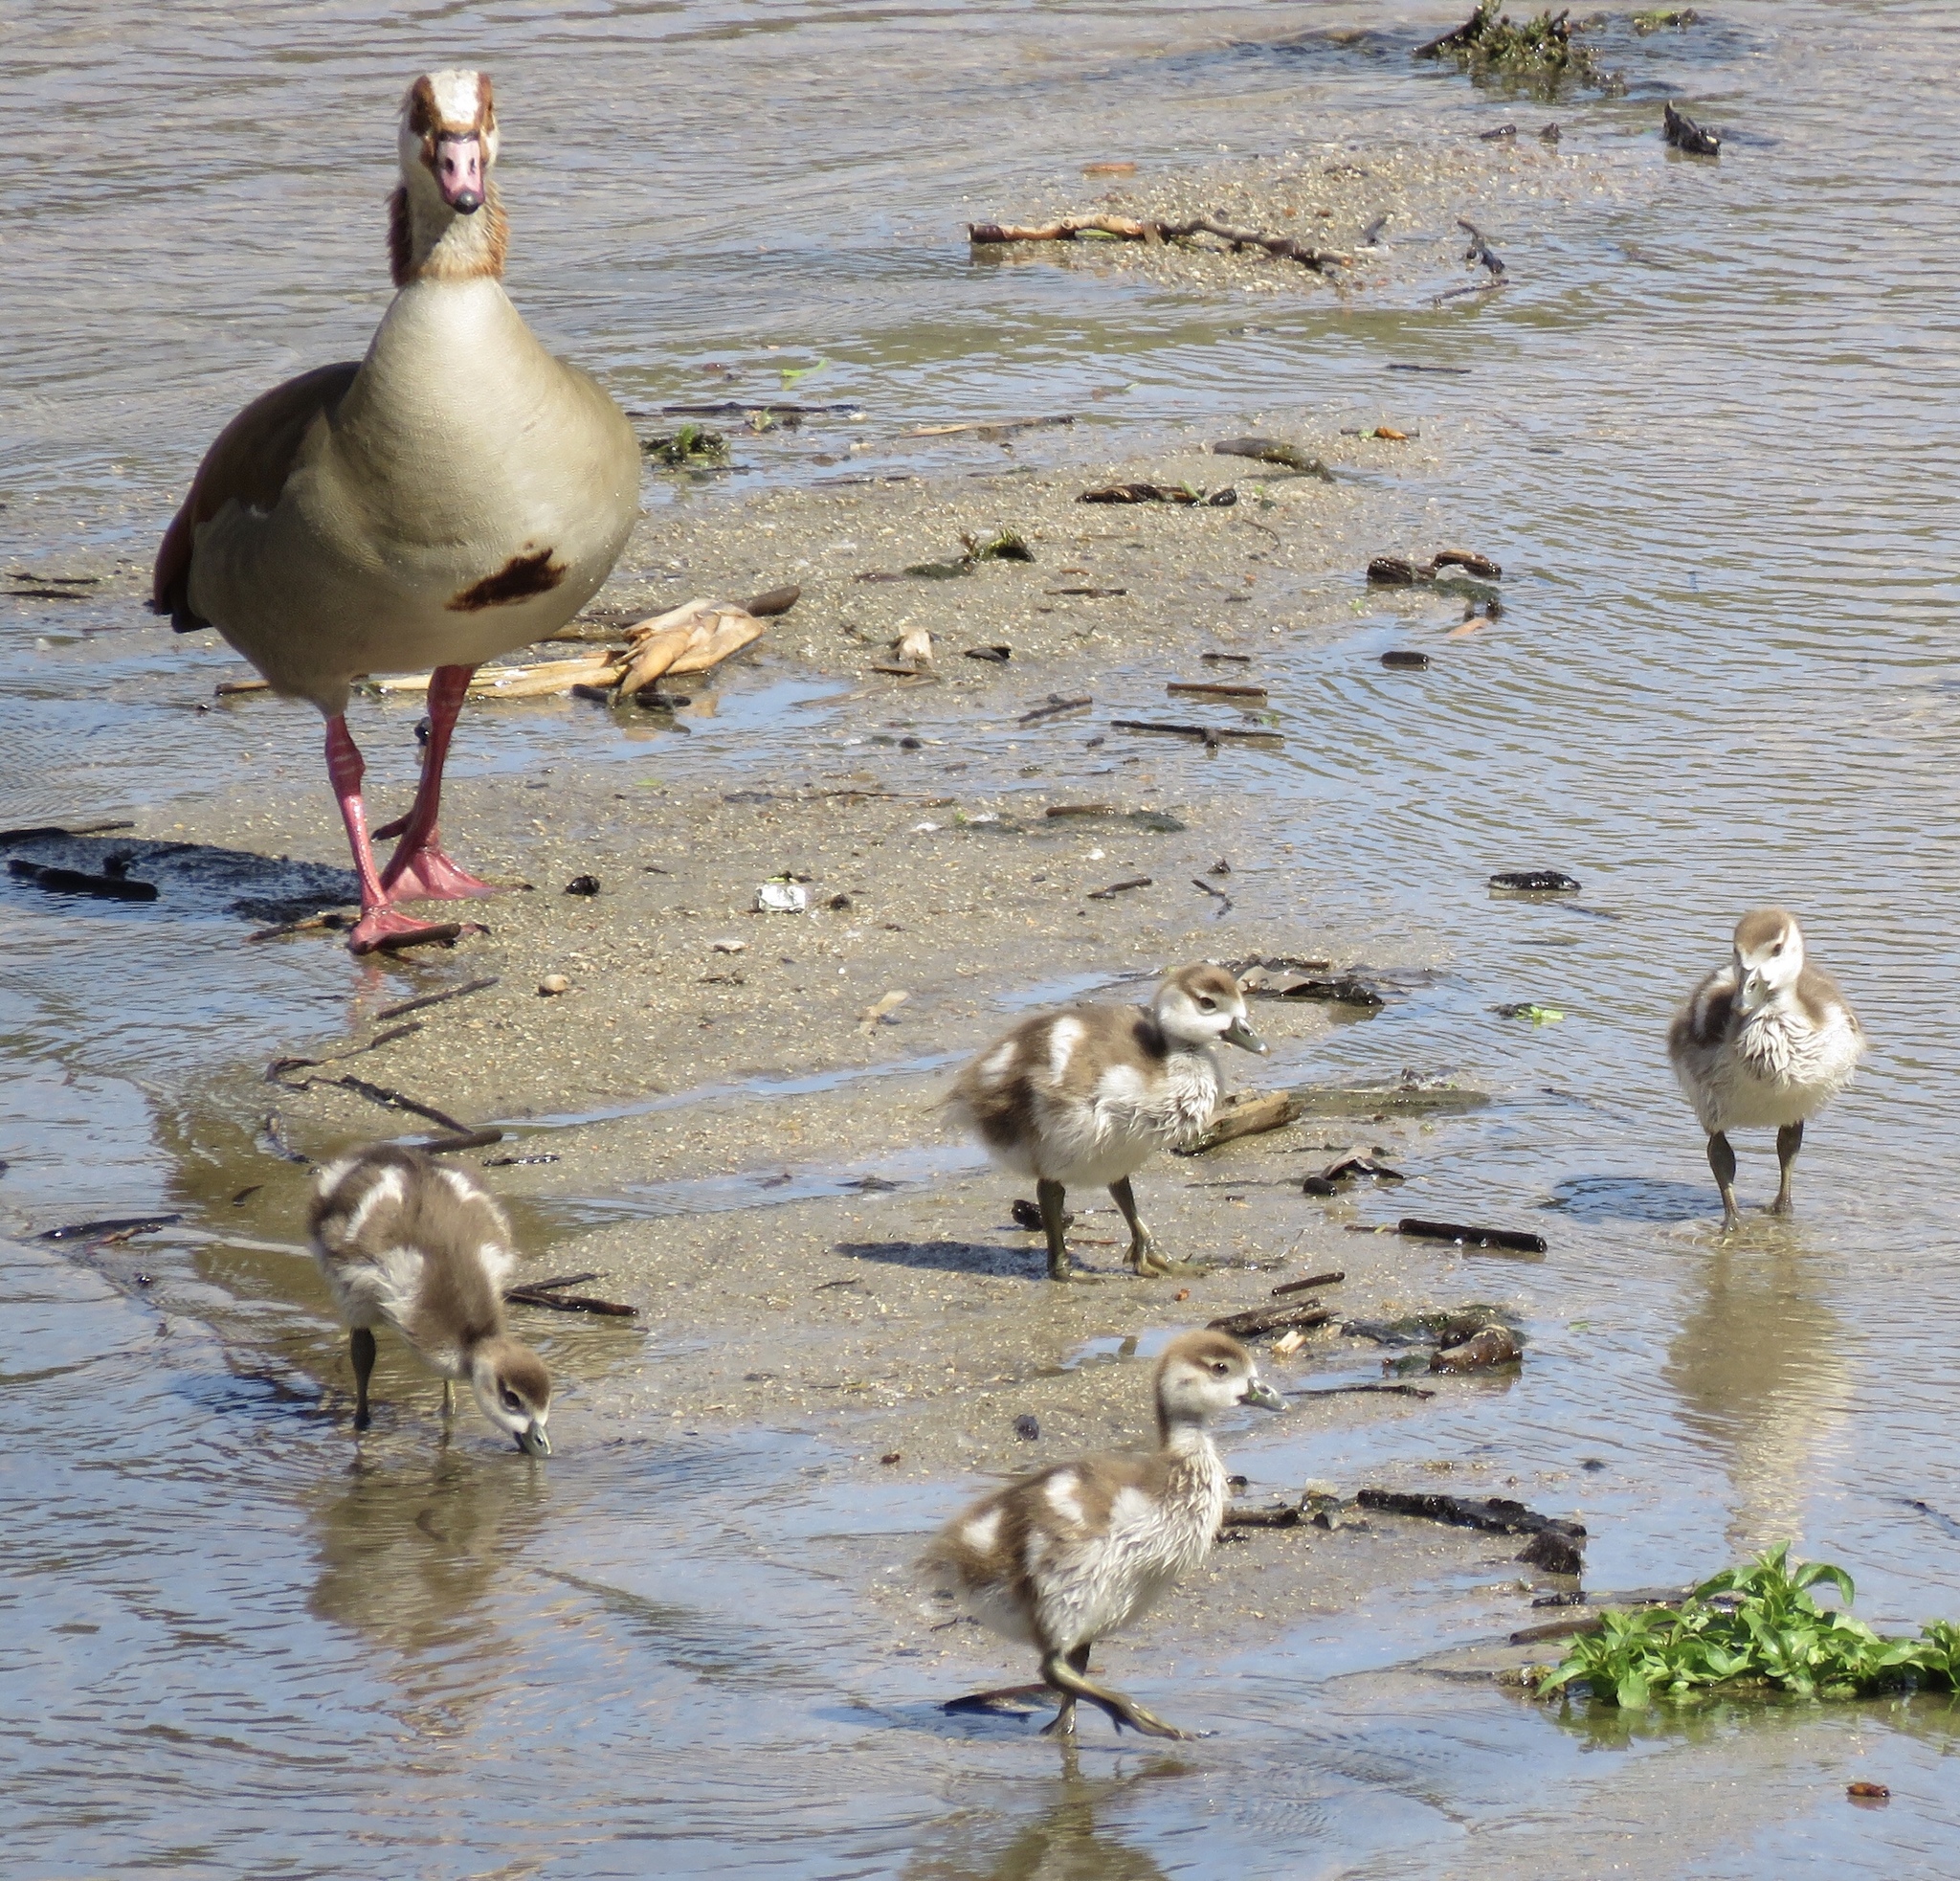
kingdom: Animalia
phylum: Chordata
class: Aves
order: Anseriformes
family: Anatidae
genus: Alopochen
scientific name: Alopochen aegyptiaca
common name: Egyptian goose
